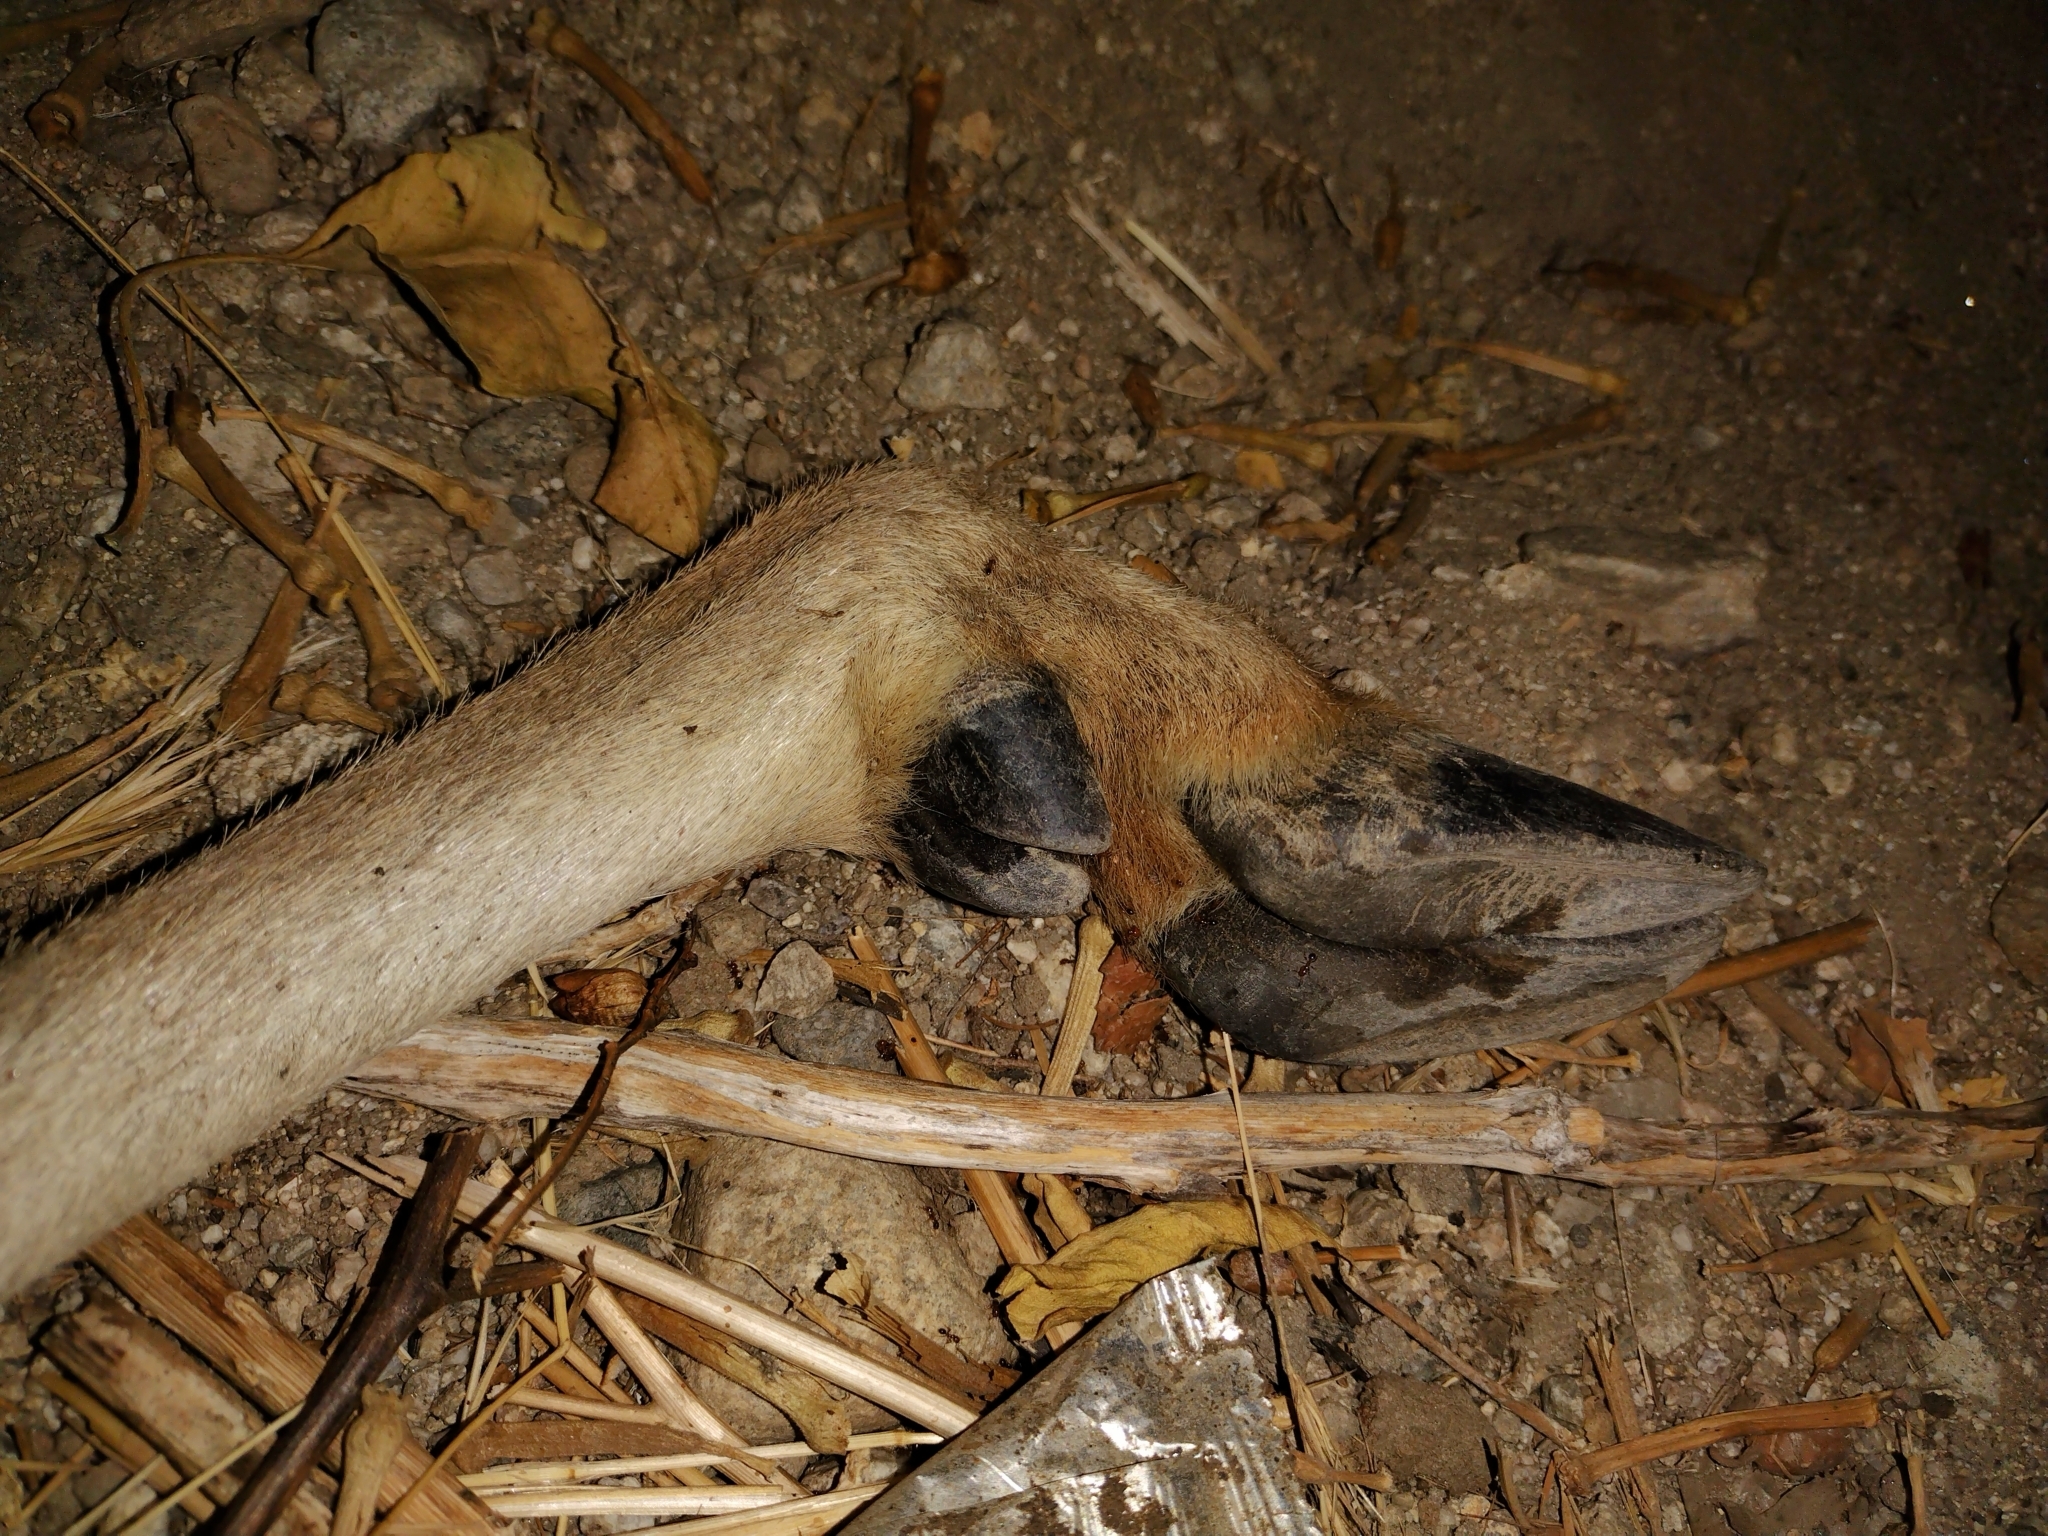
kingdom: Animalia
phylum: Chordata
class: Mammalia
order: Artiodactyla
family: Cervidae
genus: Odocoileus
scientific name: Odocoileus hemionus
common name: Mule deer
